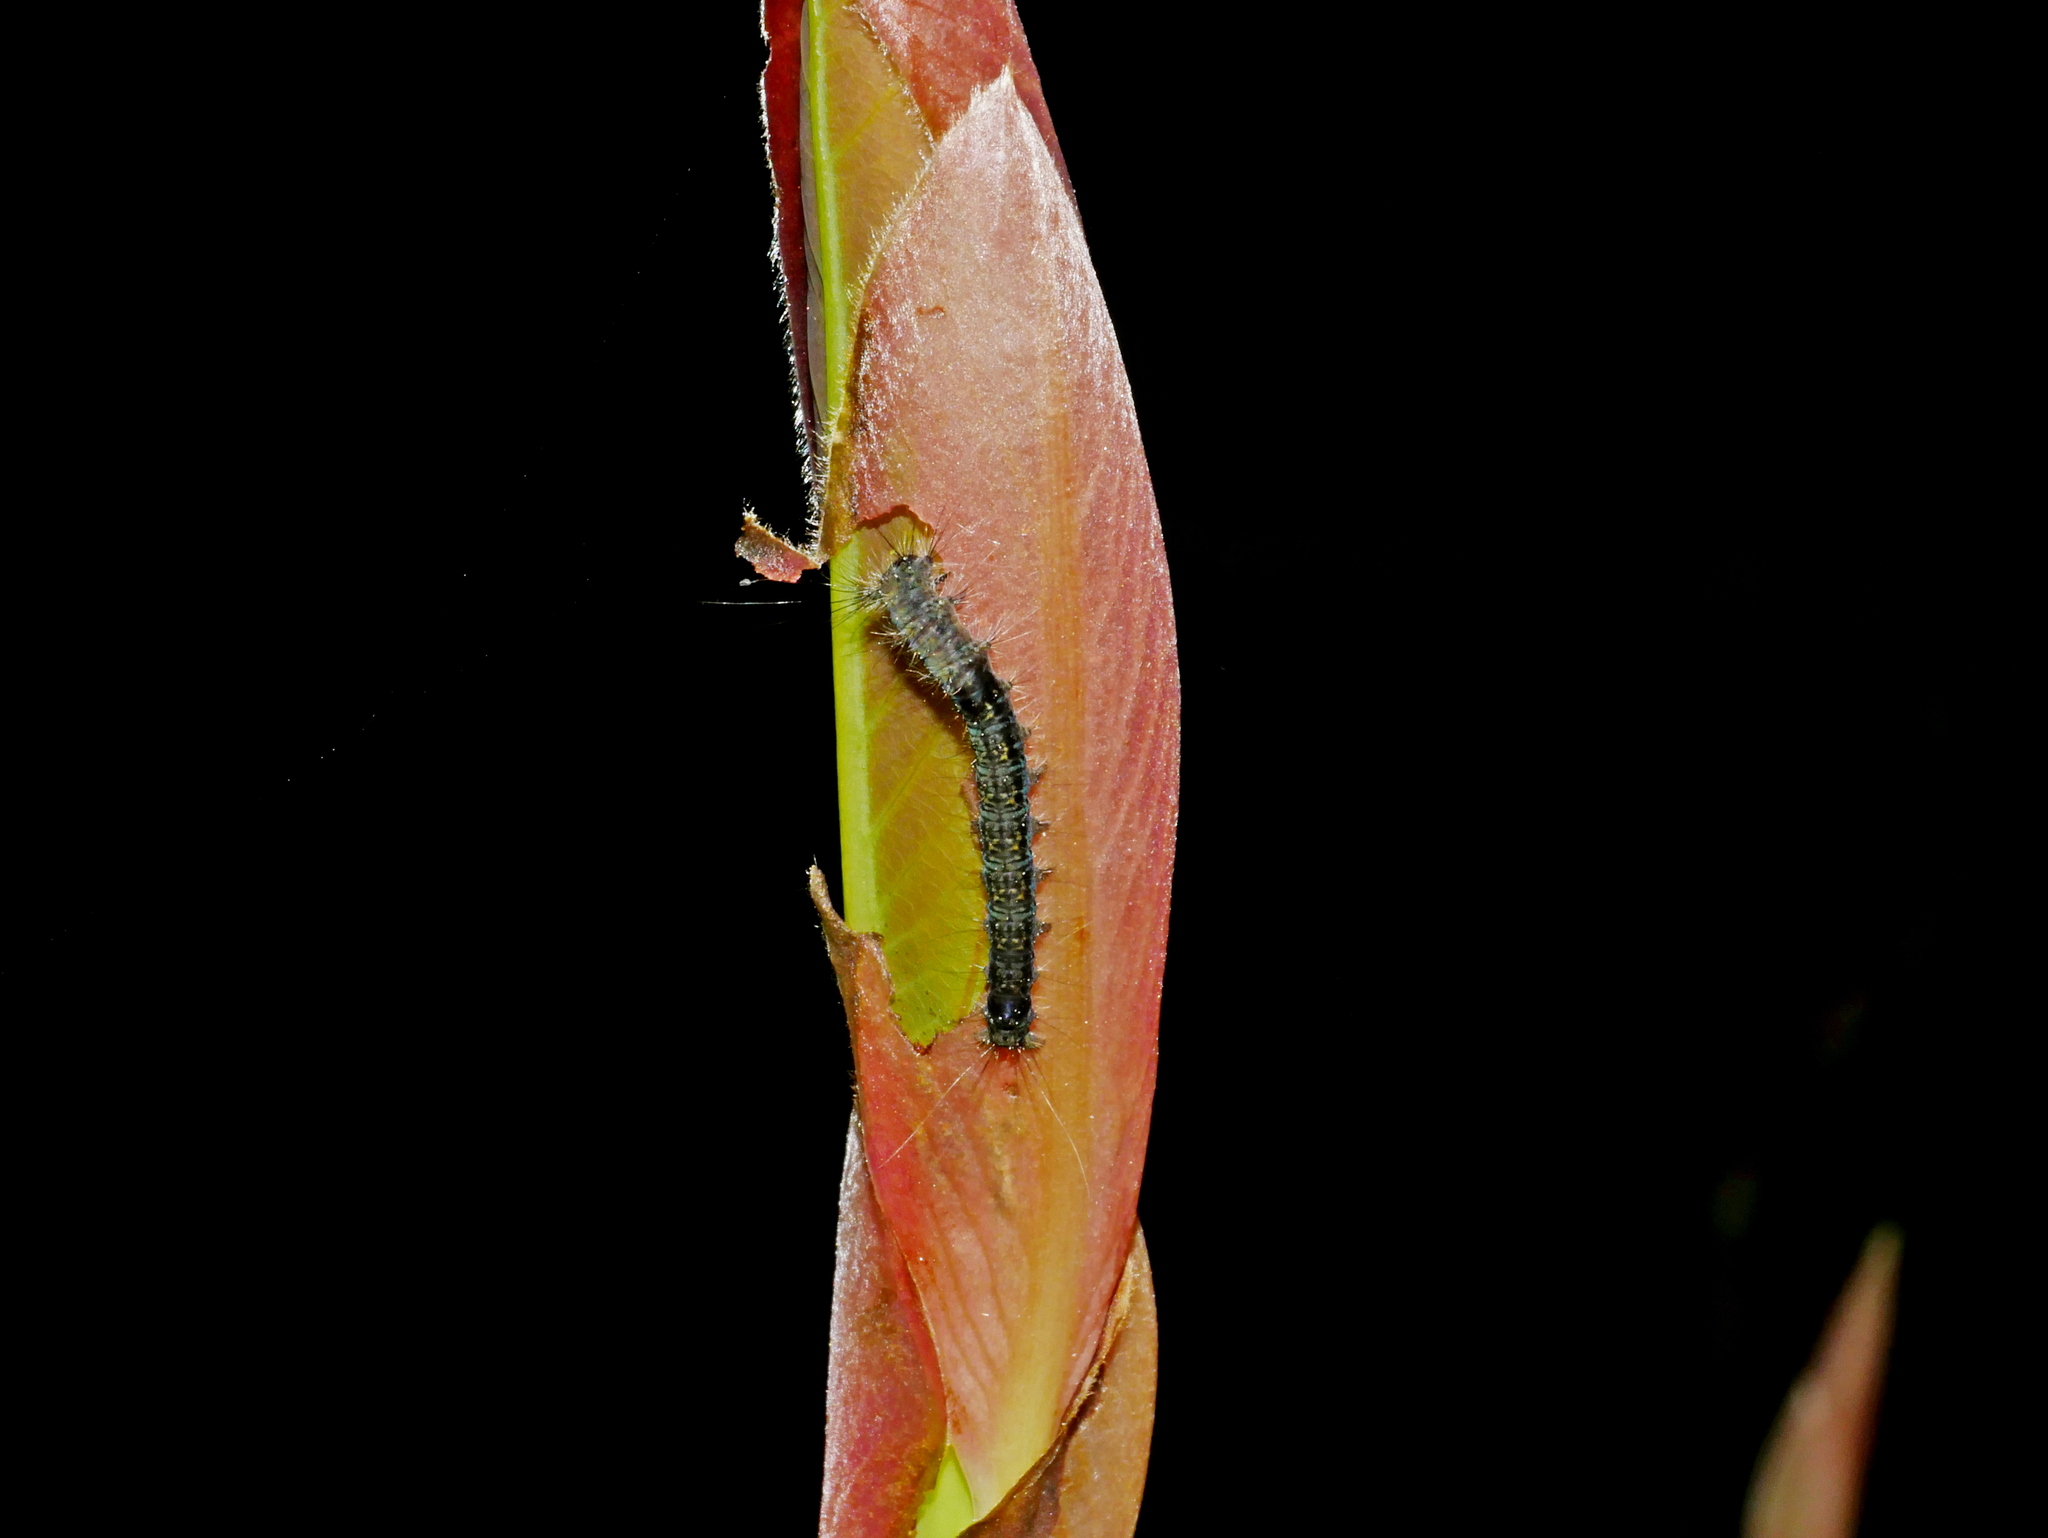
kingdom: Animalia
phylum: Arthropoda
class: Insecta
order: Lepidoptera
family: Lasiocampidae
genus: Kunugia
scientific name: Kunugia undans
